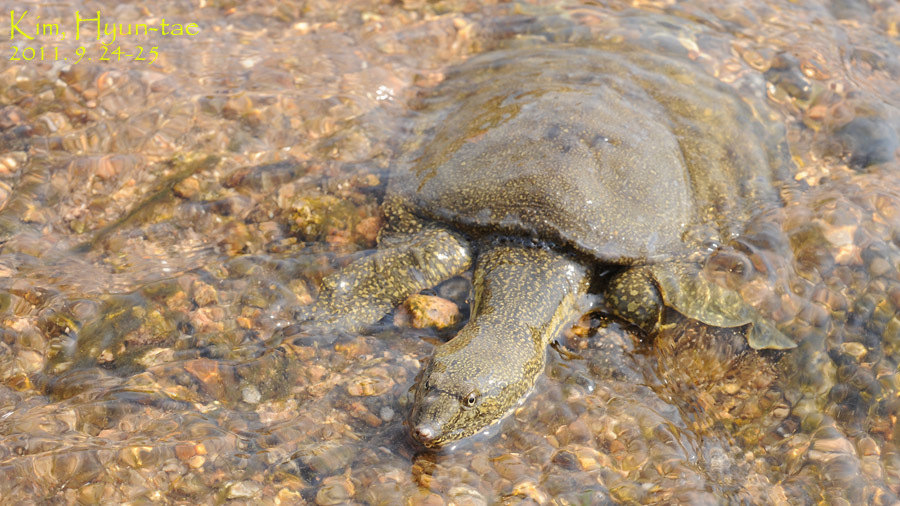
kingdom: Animalia
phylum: Chordata
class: Testudines
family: Trionychidae
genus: Pelodiscus
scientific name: Pelodiscus maackii
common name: Northern chinese softshell turtle
